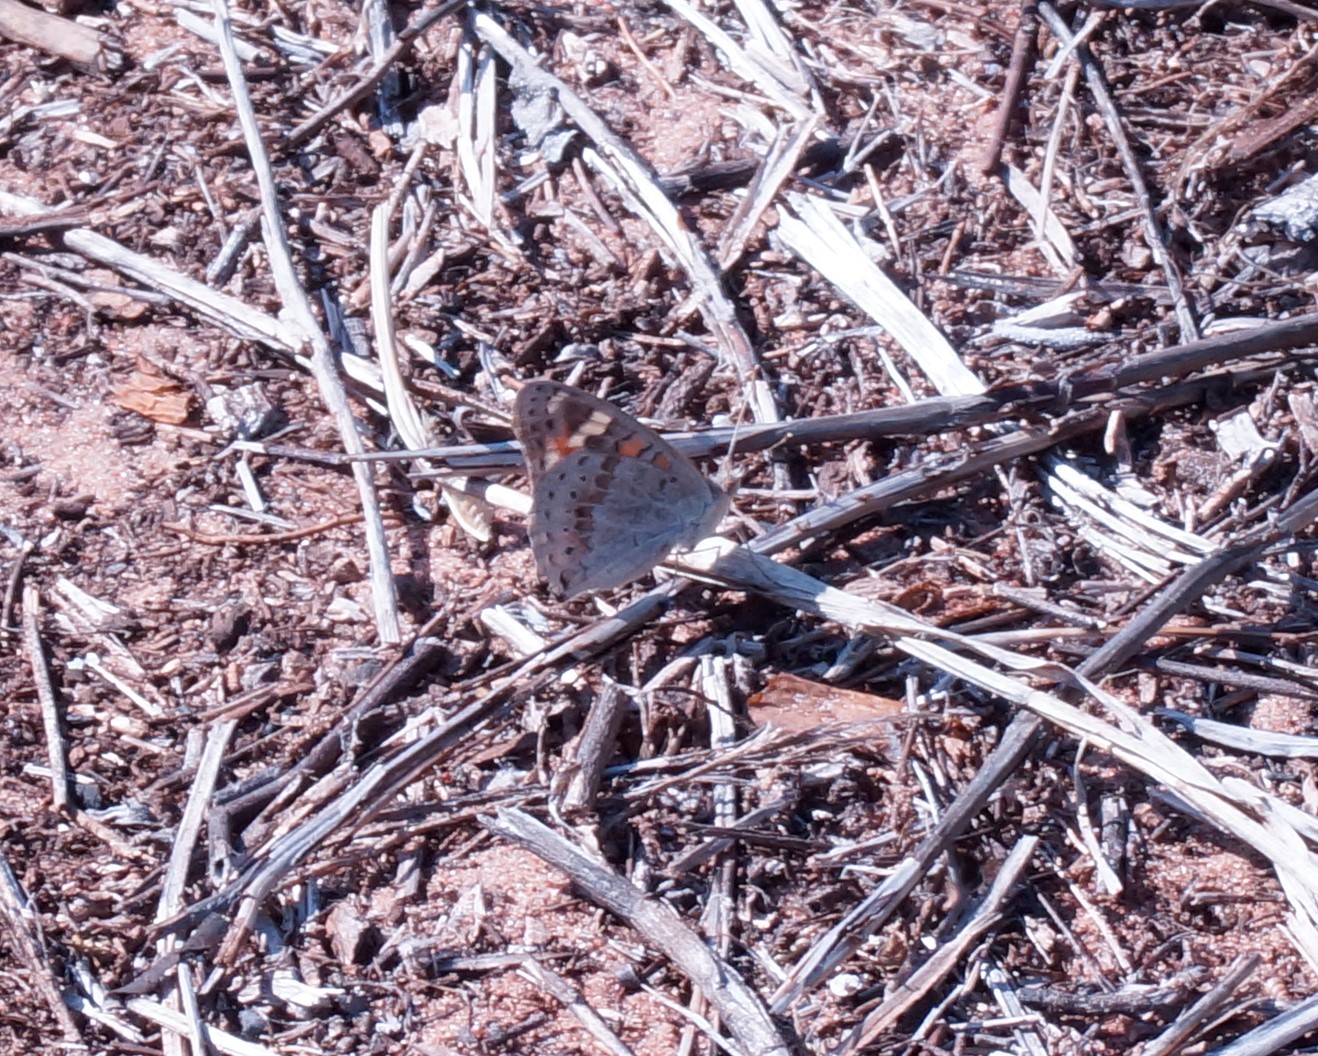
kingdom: Animalia
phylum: Arthropoda
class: Insecta
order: Lepidoptera
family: Nymphalidae
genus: Junonia
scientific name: Junonia orithya
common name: Blue pansy
